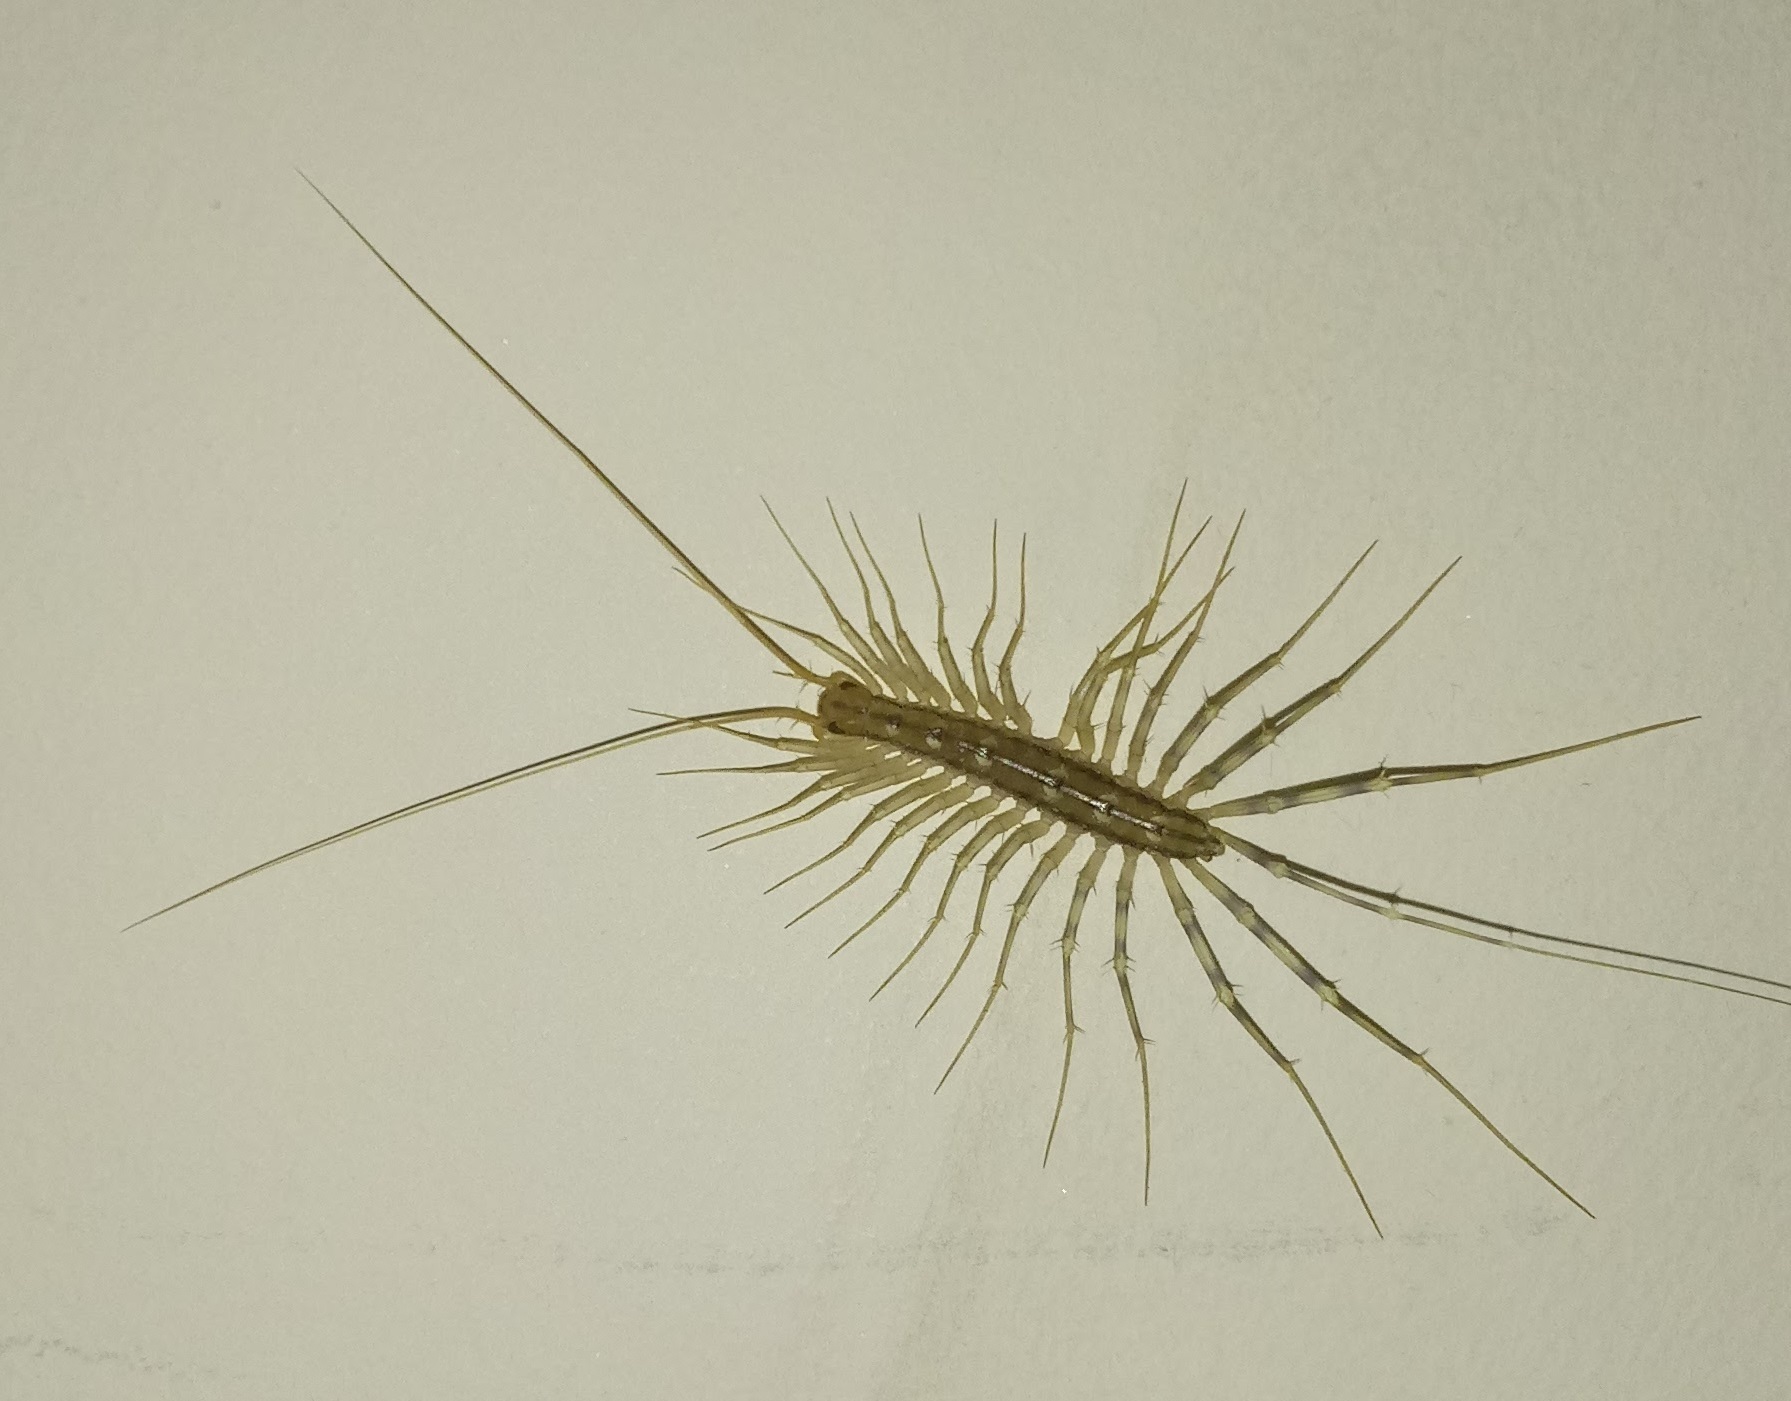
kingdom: Animalia
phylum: Arthropoda
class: Chilopoda
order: Scutigeromorpha
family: Scutigeridae
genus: Scutigera
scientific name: Scutigera coleoptrata
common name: House centipede
